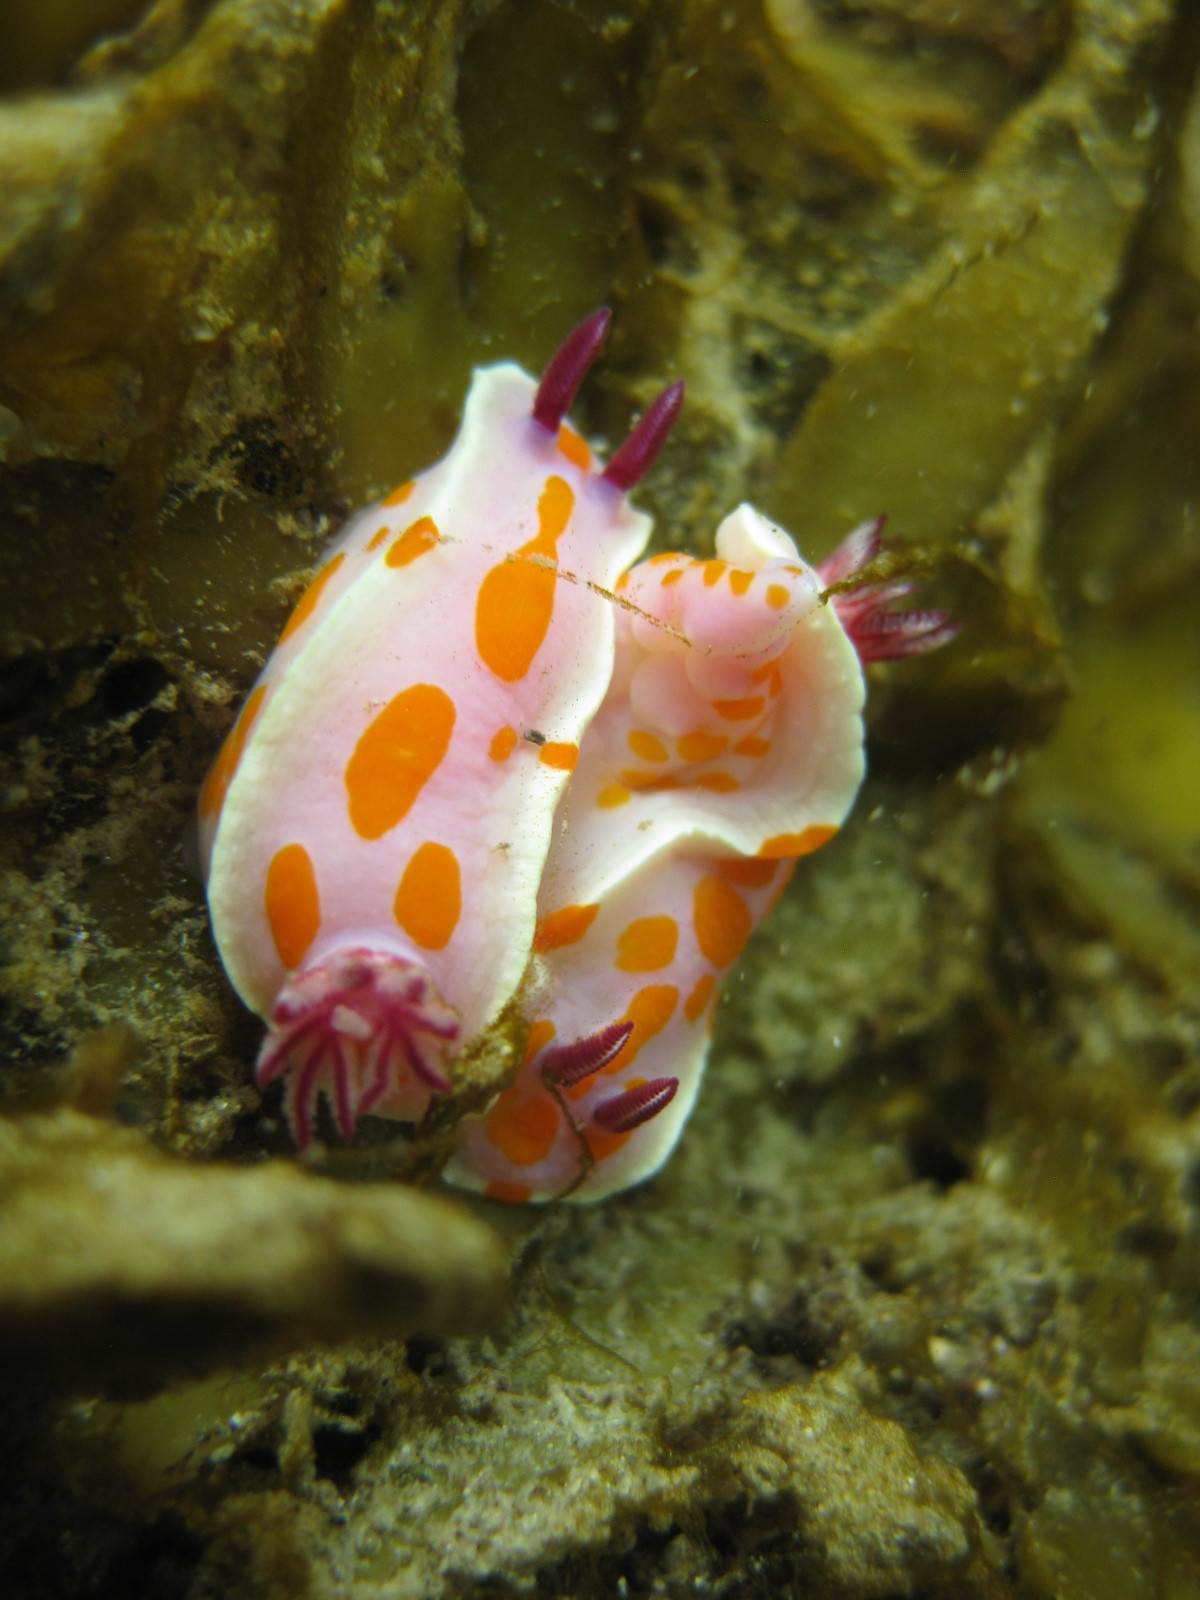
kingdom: Animalia
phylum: Mollusca
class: Gastropoda
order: Nudibranchia
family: Chromodorididae
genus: Ceratosoma
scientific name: Ceratosoma amoenum
